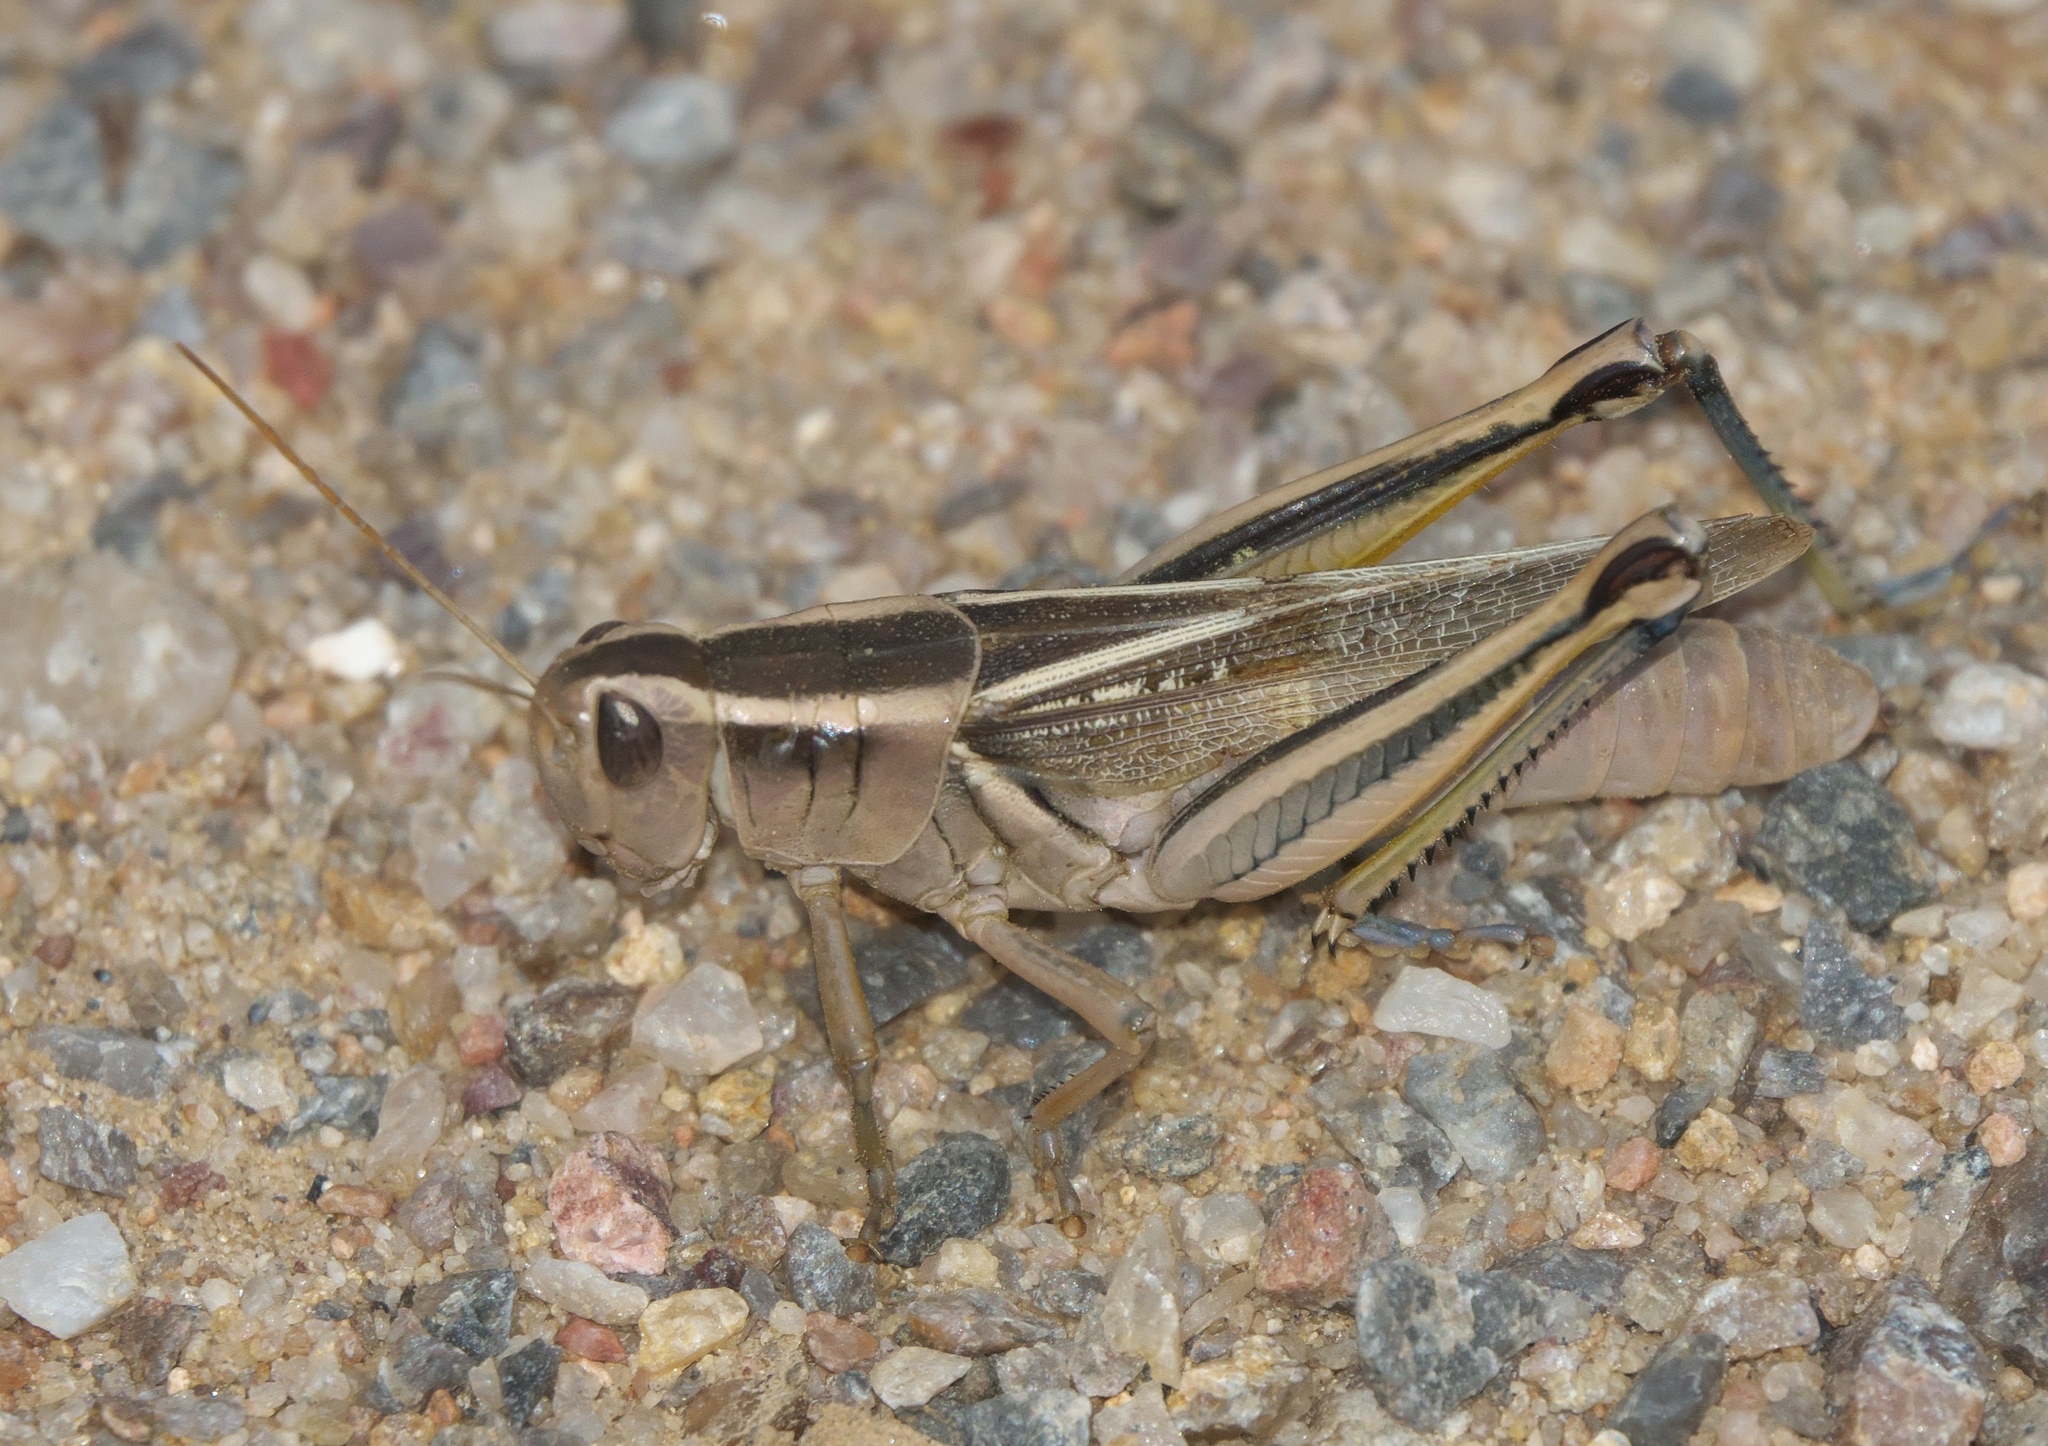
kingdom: Animalia
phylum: Arthropoda
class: Insecta
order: Orthoptera
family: Acrididae
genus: Melanoplus
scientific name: Melanoplus bivittatus
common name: Two-striped grasshopper
